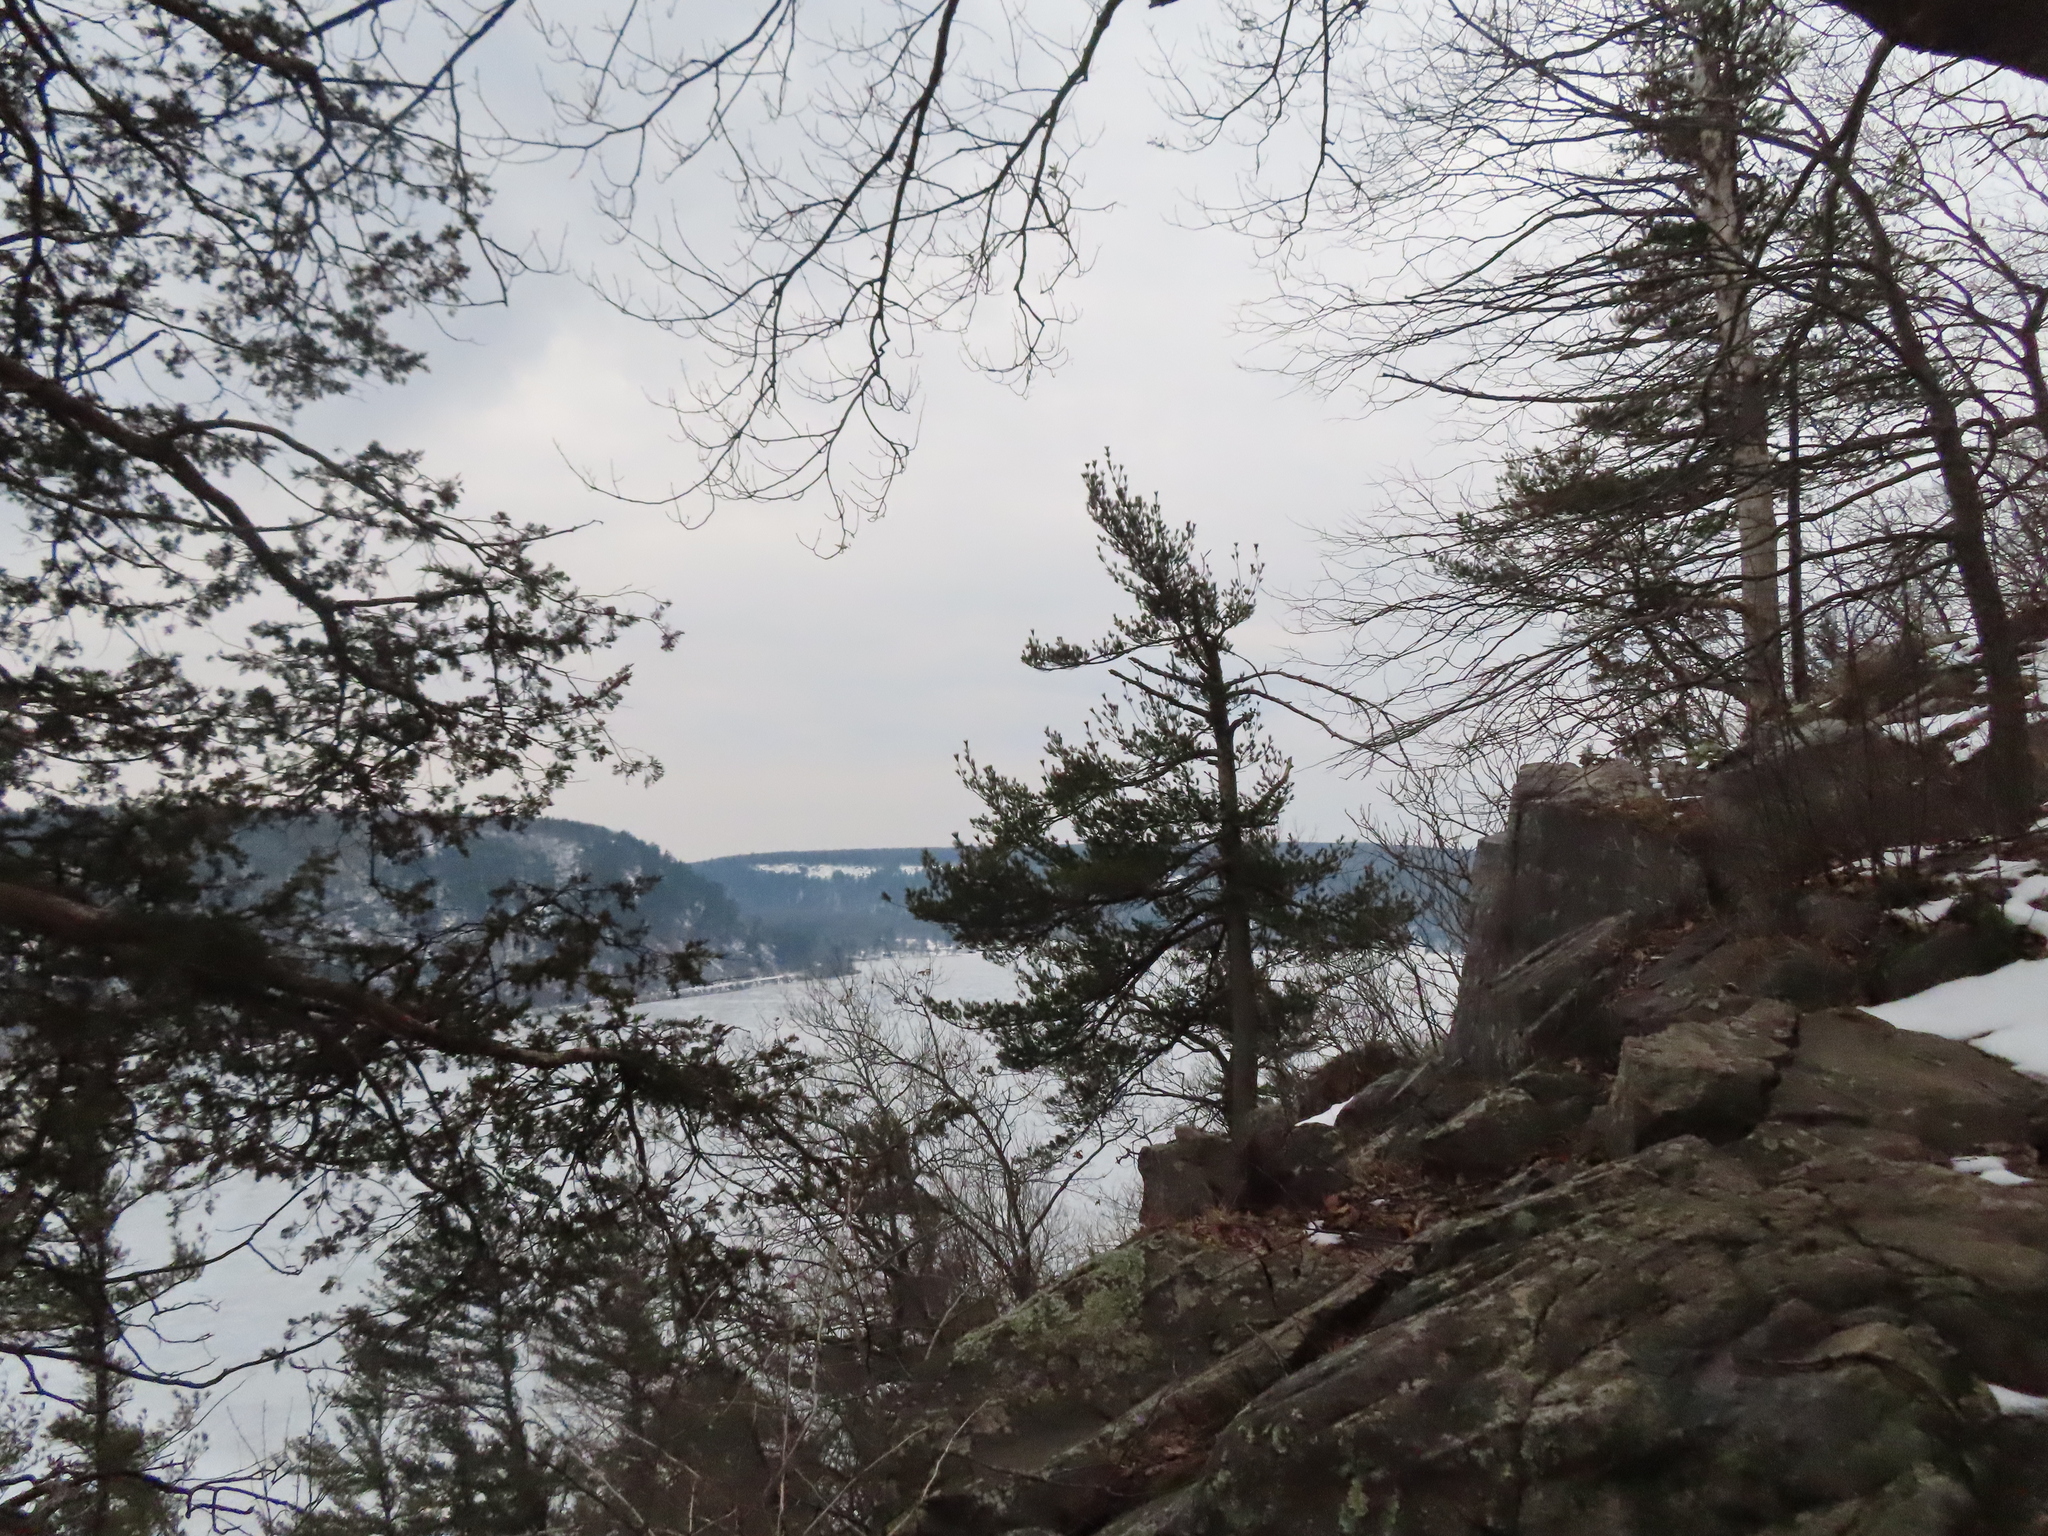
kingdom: Plantae
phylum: Tracheophyta
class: Pinopsida
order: Pinales
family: Pinaceae
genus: Pinus
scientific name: Pinus strobus
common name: Weymouth pine
